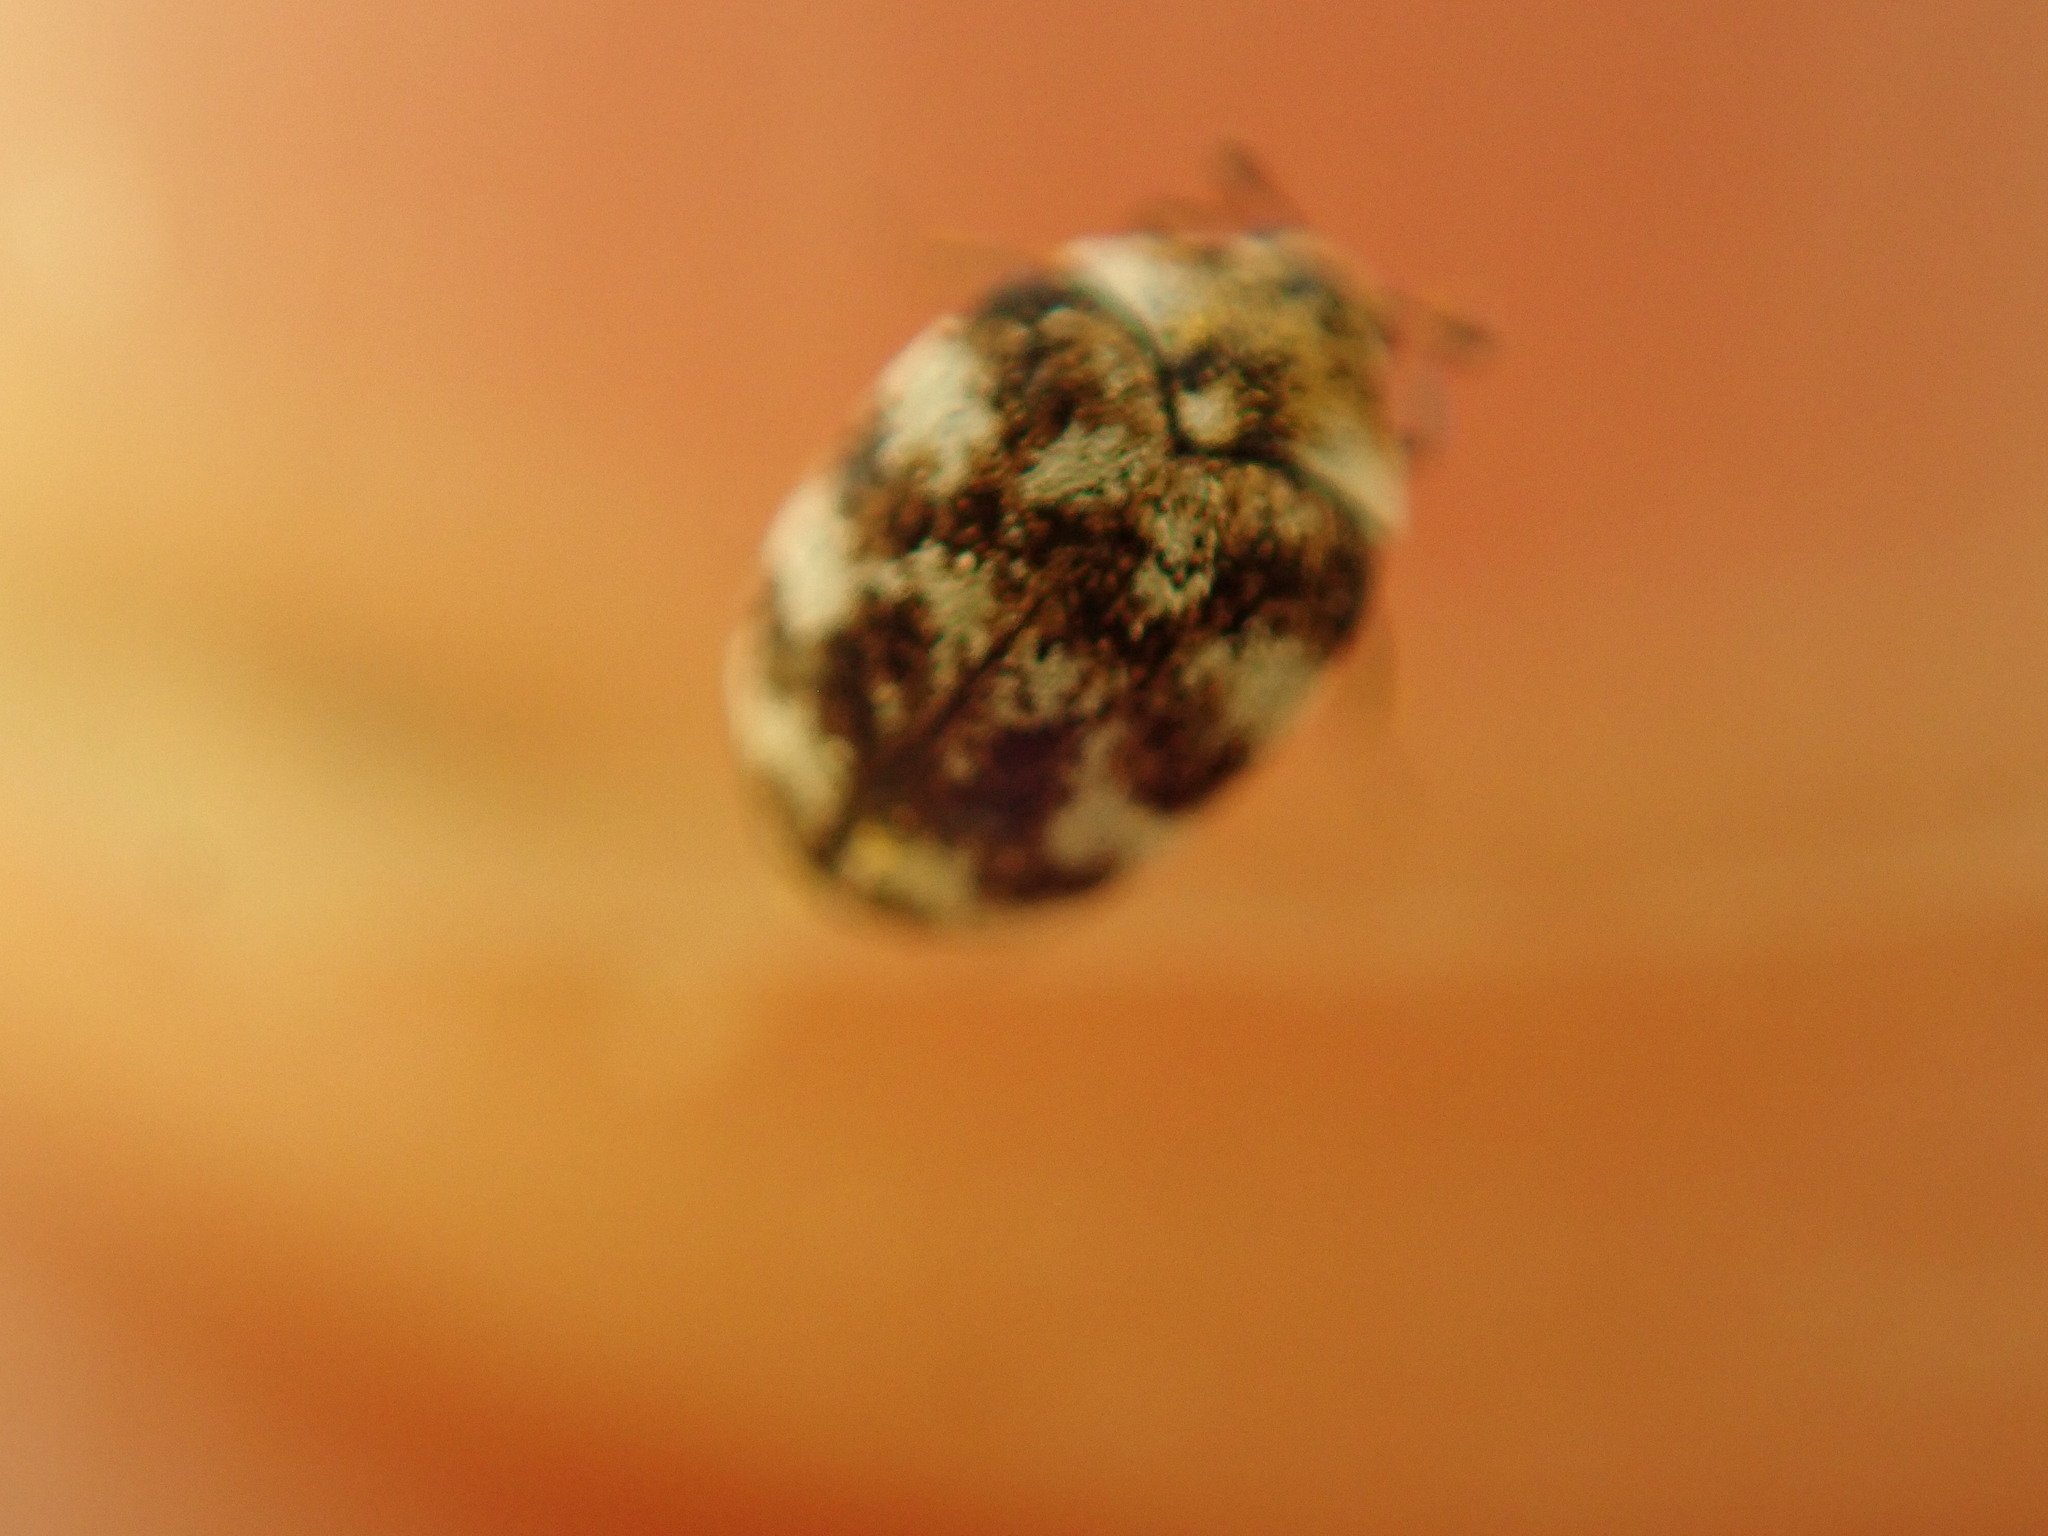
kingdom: Animalia
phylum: Arthropoda
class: Insecta
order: Coleoptera
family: Dermestidae
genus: Anthrenus
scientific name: Anthrenus verbasci
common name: Varied carpet beetle
